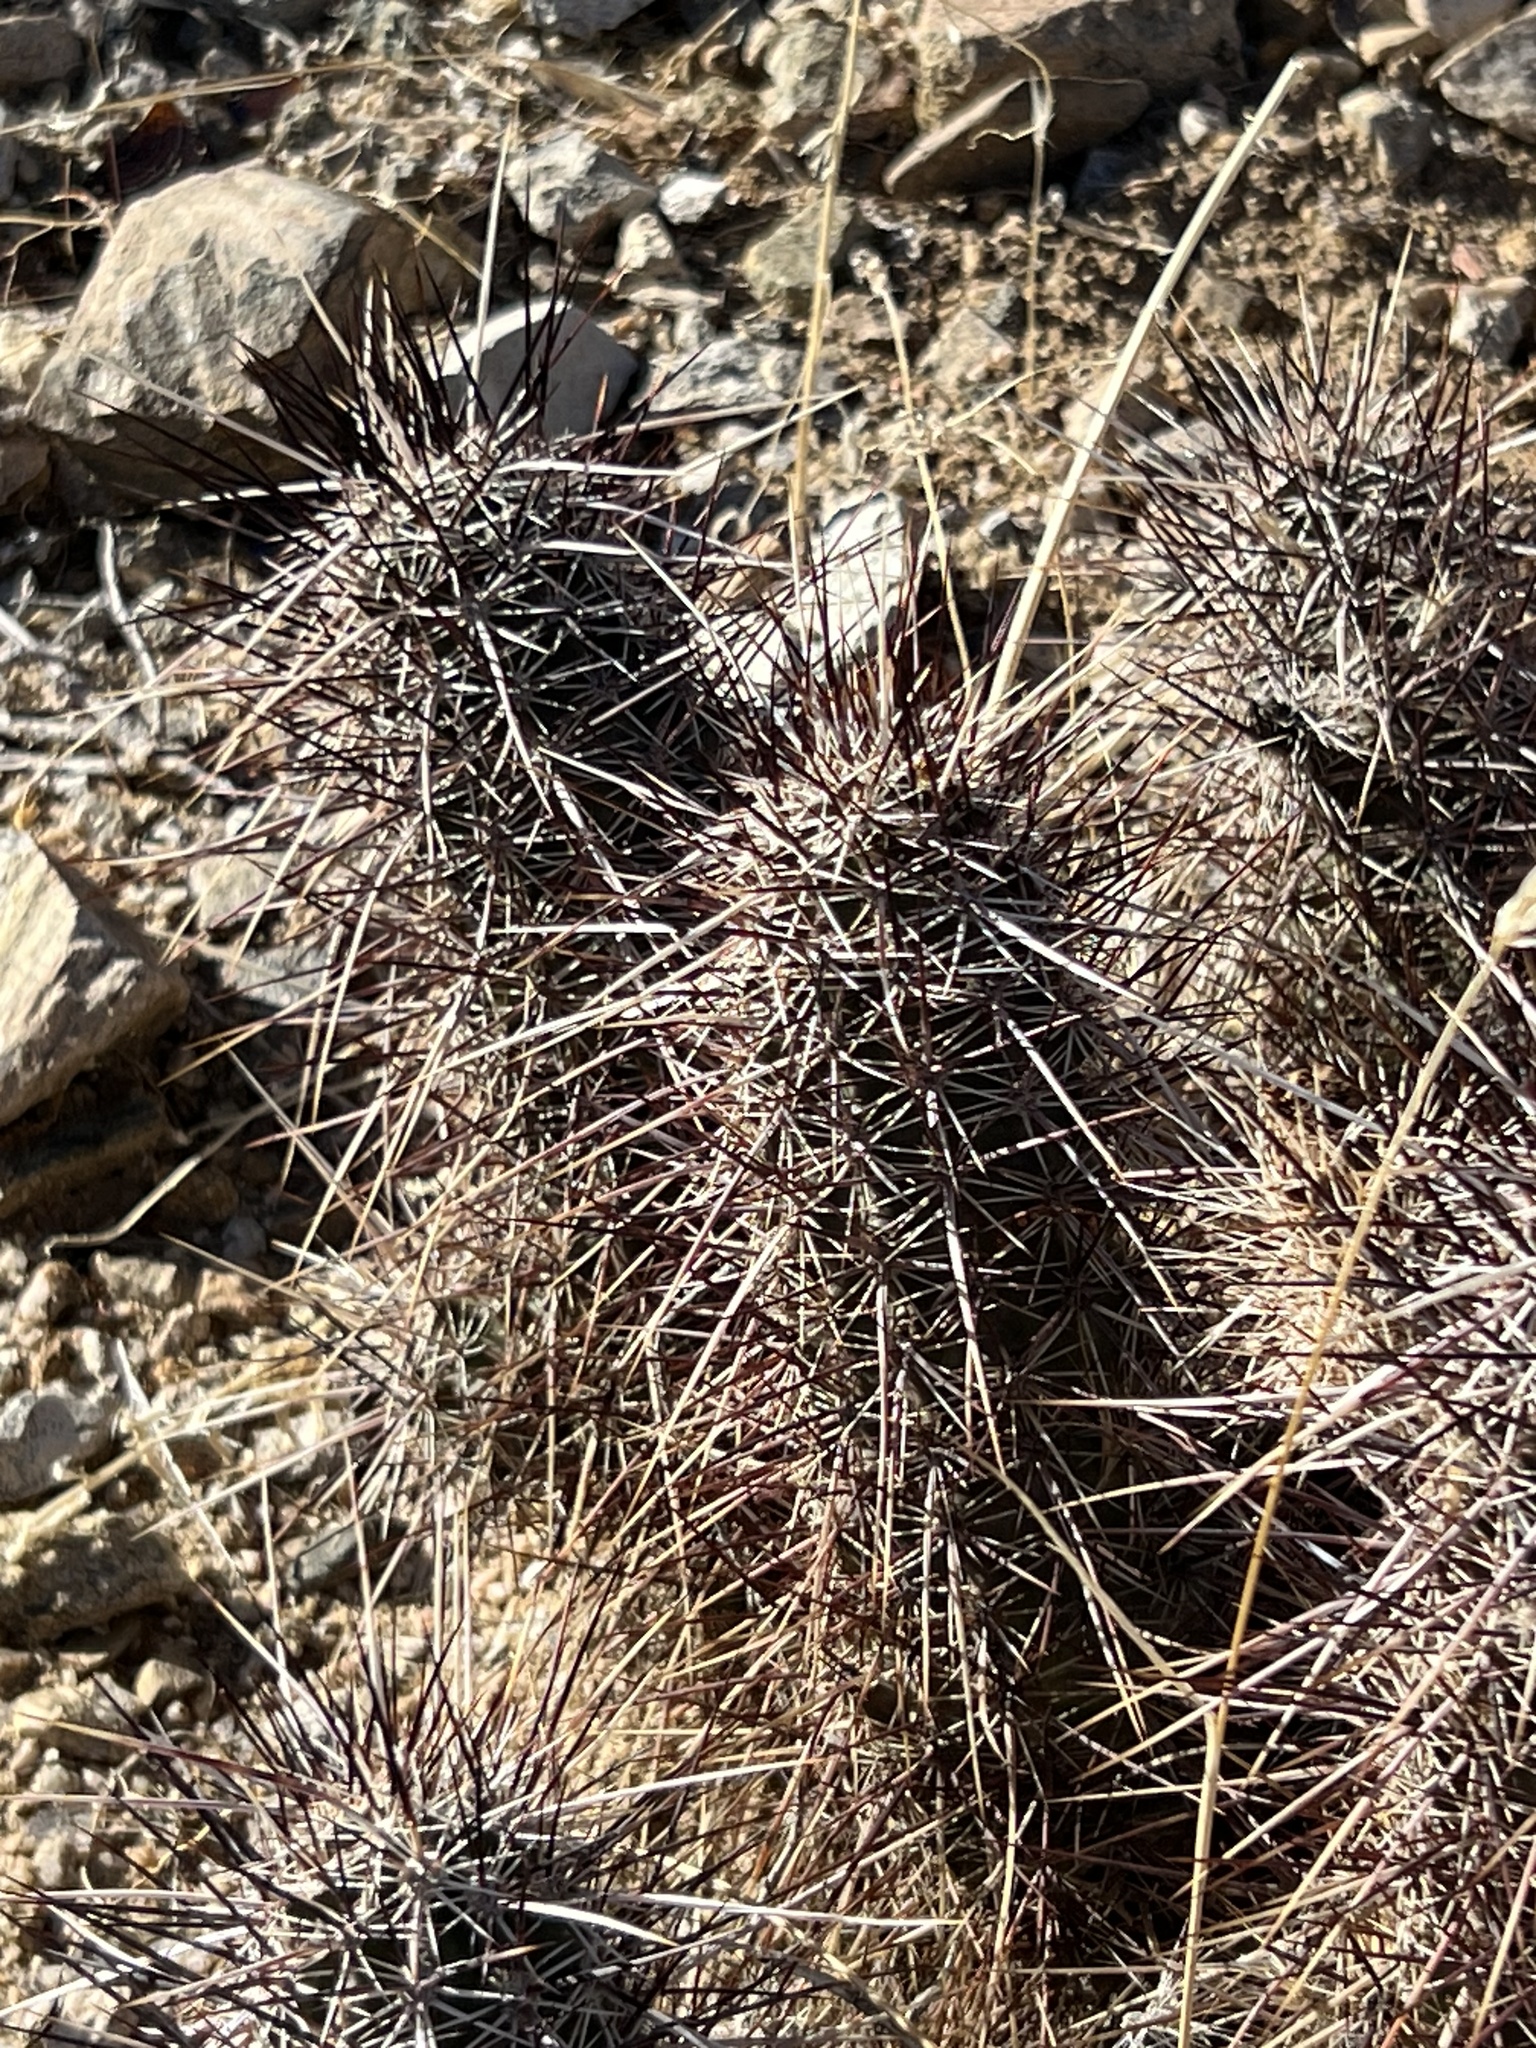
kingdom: Plantae
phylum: Tracheophyta
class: Magnoliopsida
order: Caryophyllales
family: Cactaceae
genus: Echinocereus
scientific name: Echinocereus engelmannii
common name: Engelmann's hedgehog cactus
